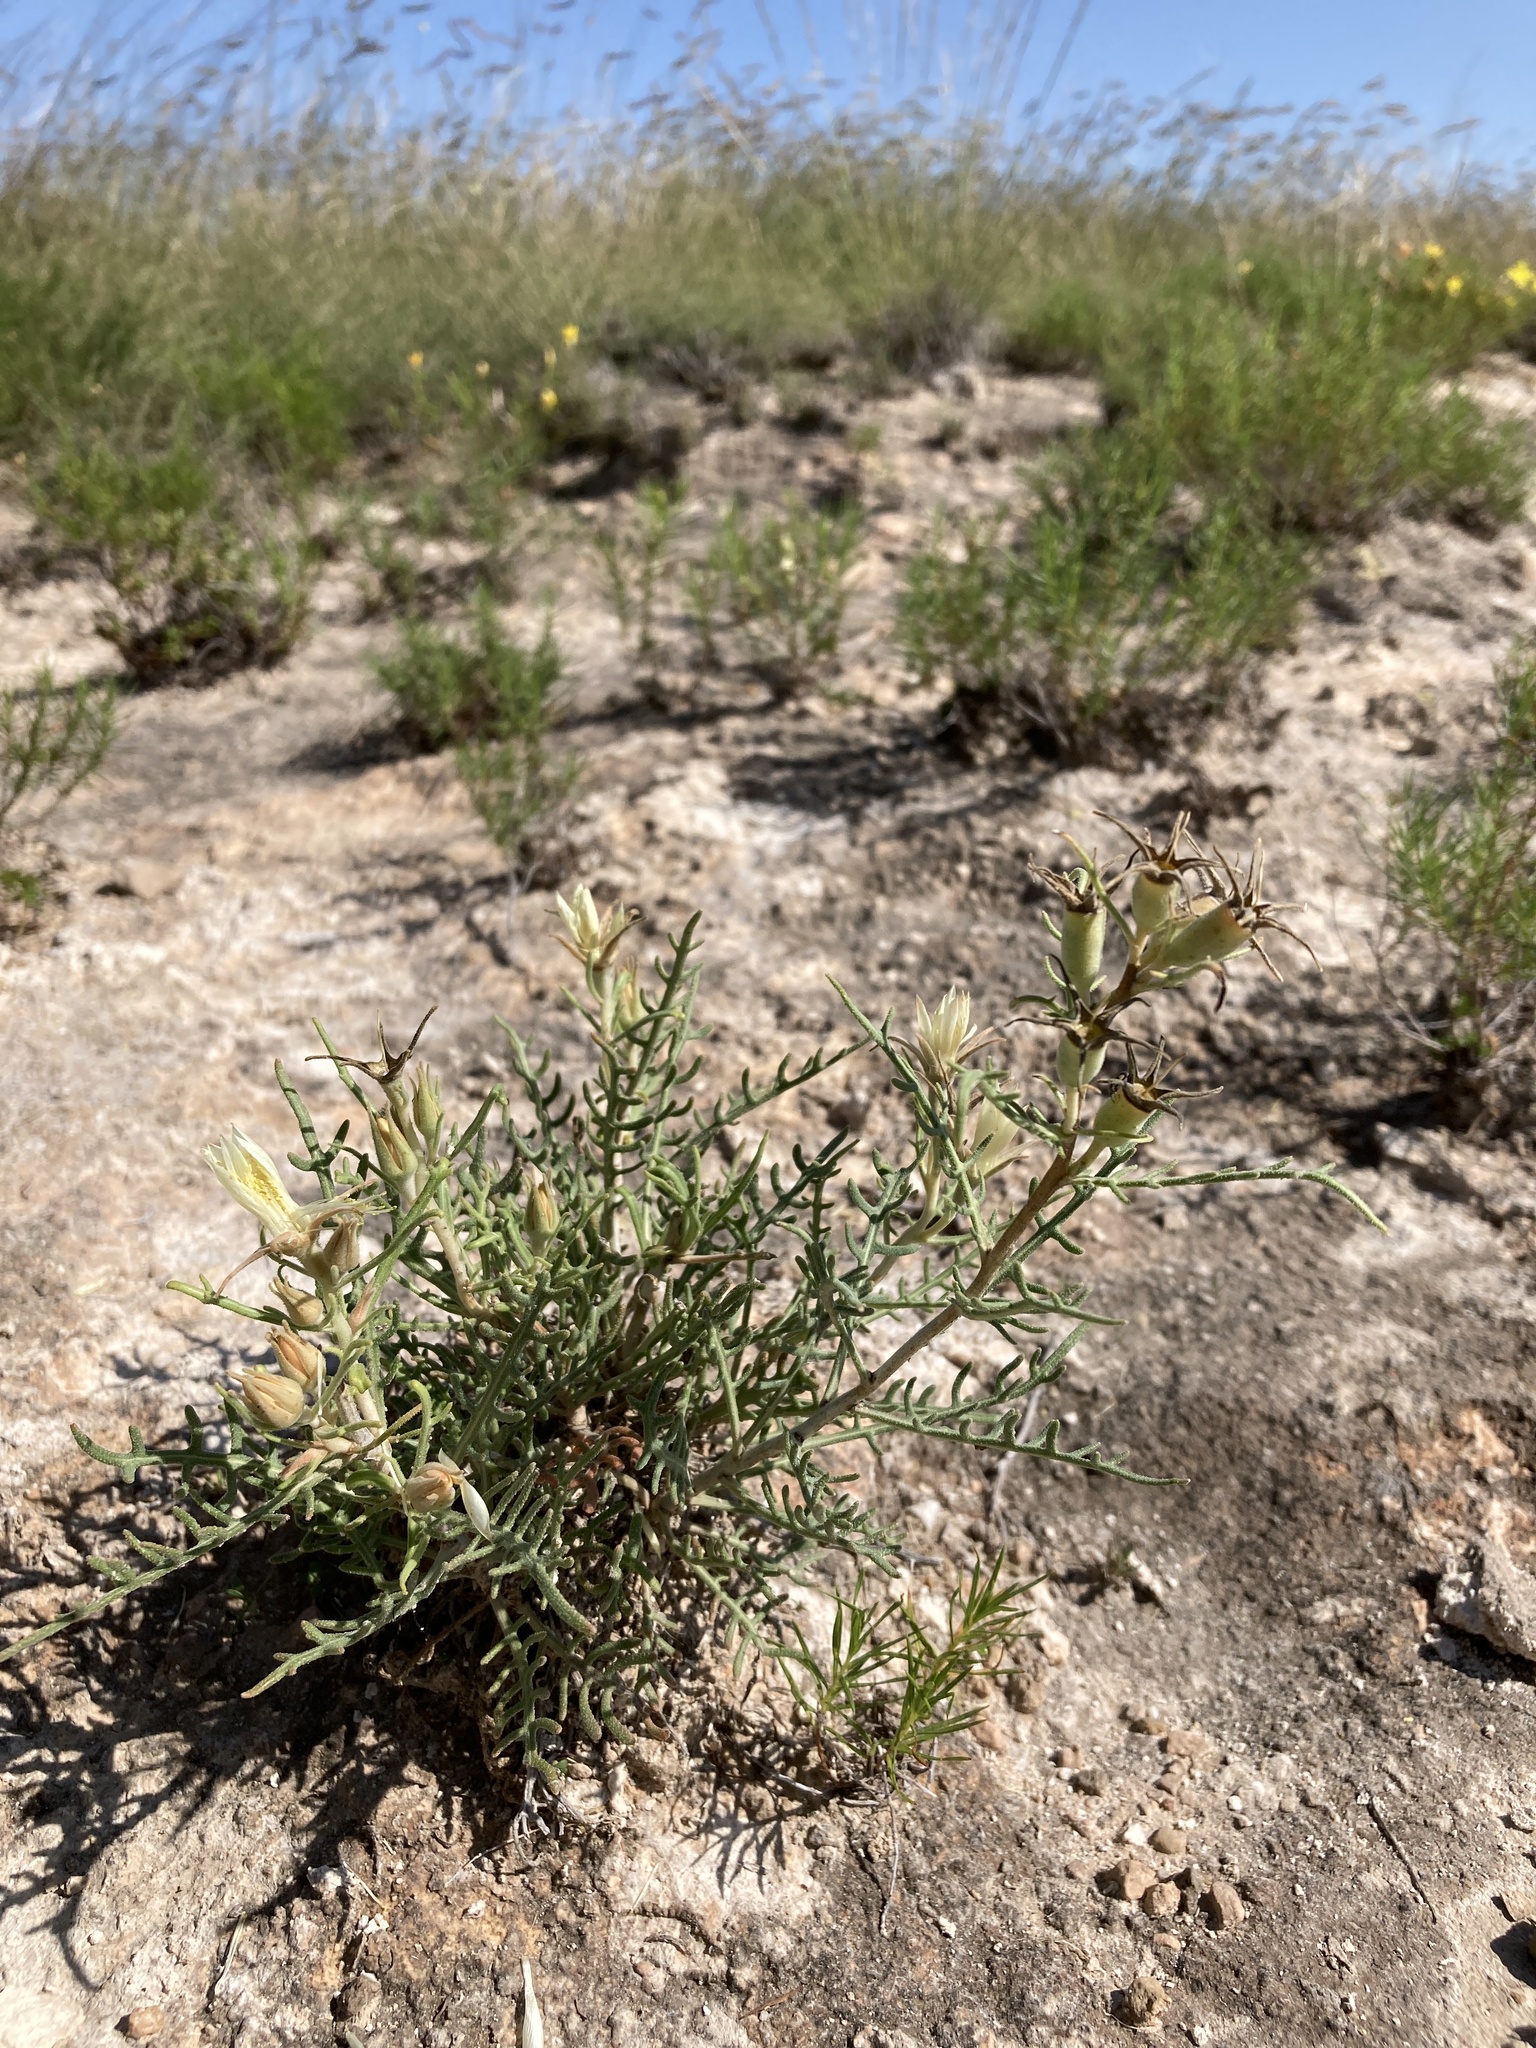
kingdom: Plantae
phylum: Tracheophyta
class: Magnoliopsida
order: Cornales
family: Loasaceae
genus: Mentzelia
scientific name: Mentzelia humilis
